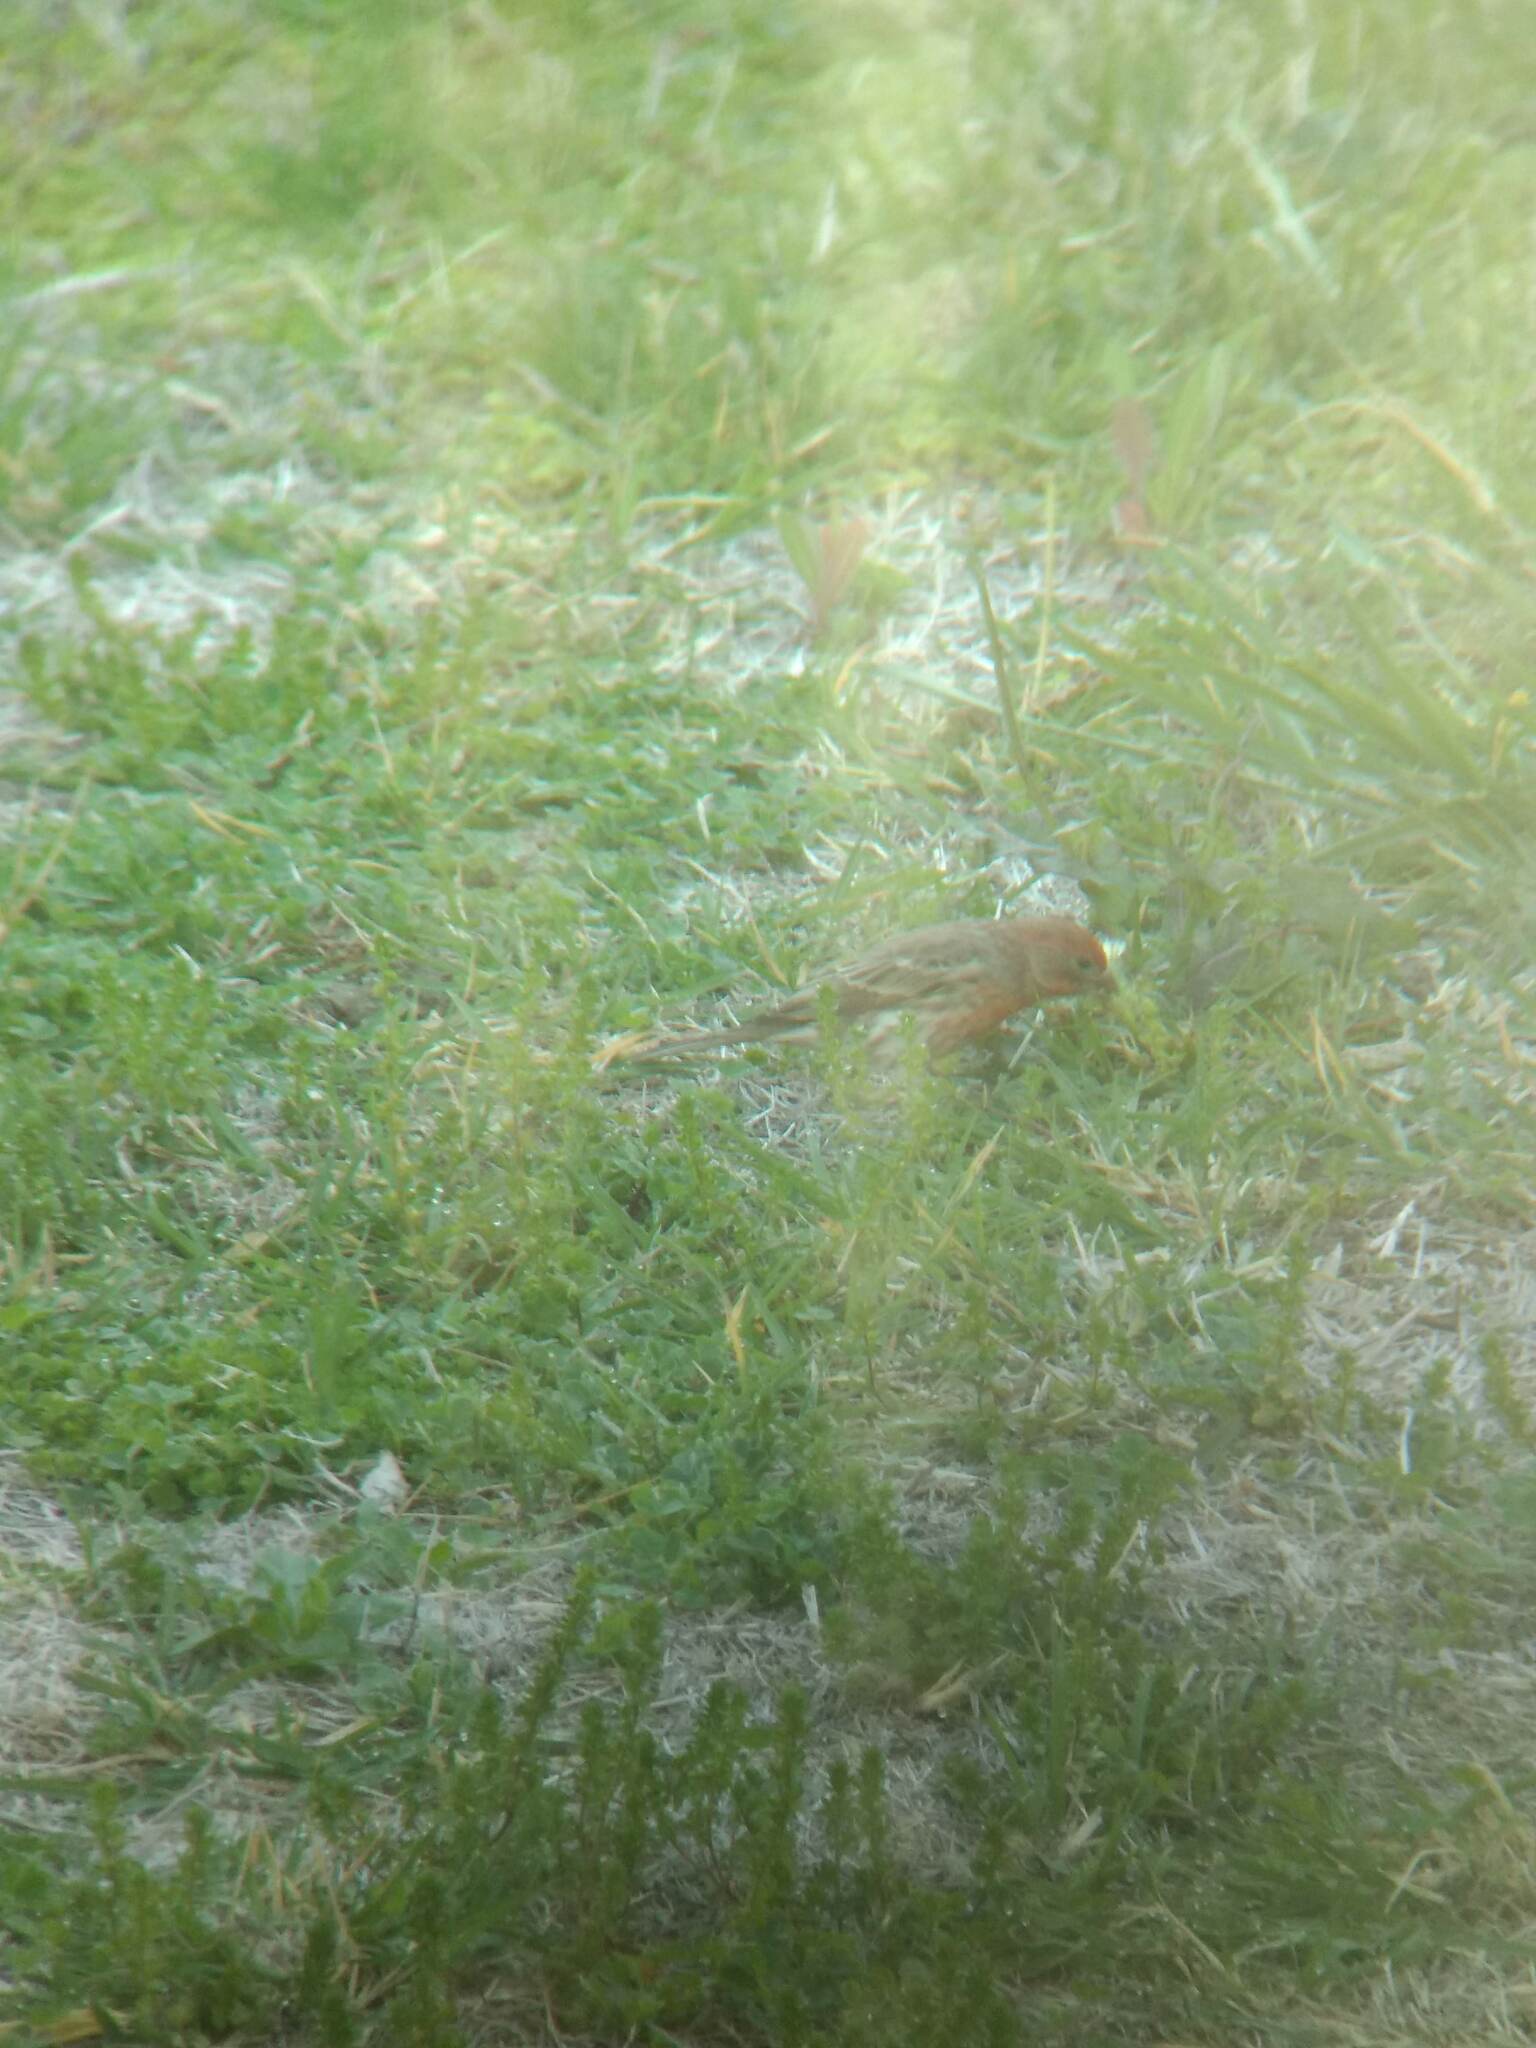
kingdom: Animalia
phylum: Chordata
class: Aves
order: Passeriformes
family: Fringillidae
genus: Haemorhous
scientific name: Haemorhous mexicanus
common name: House finch
